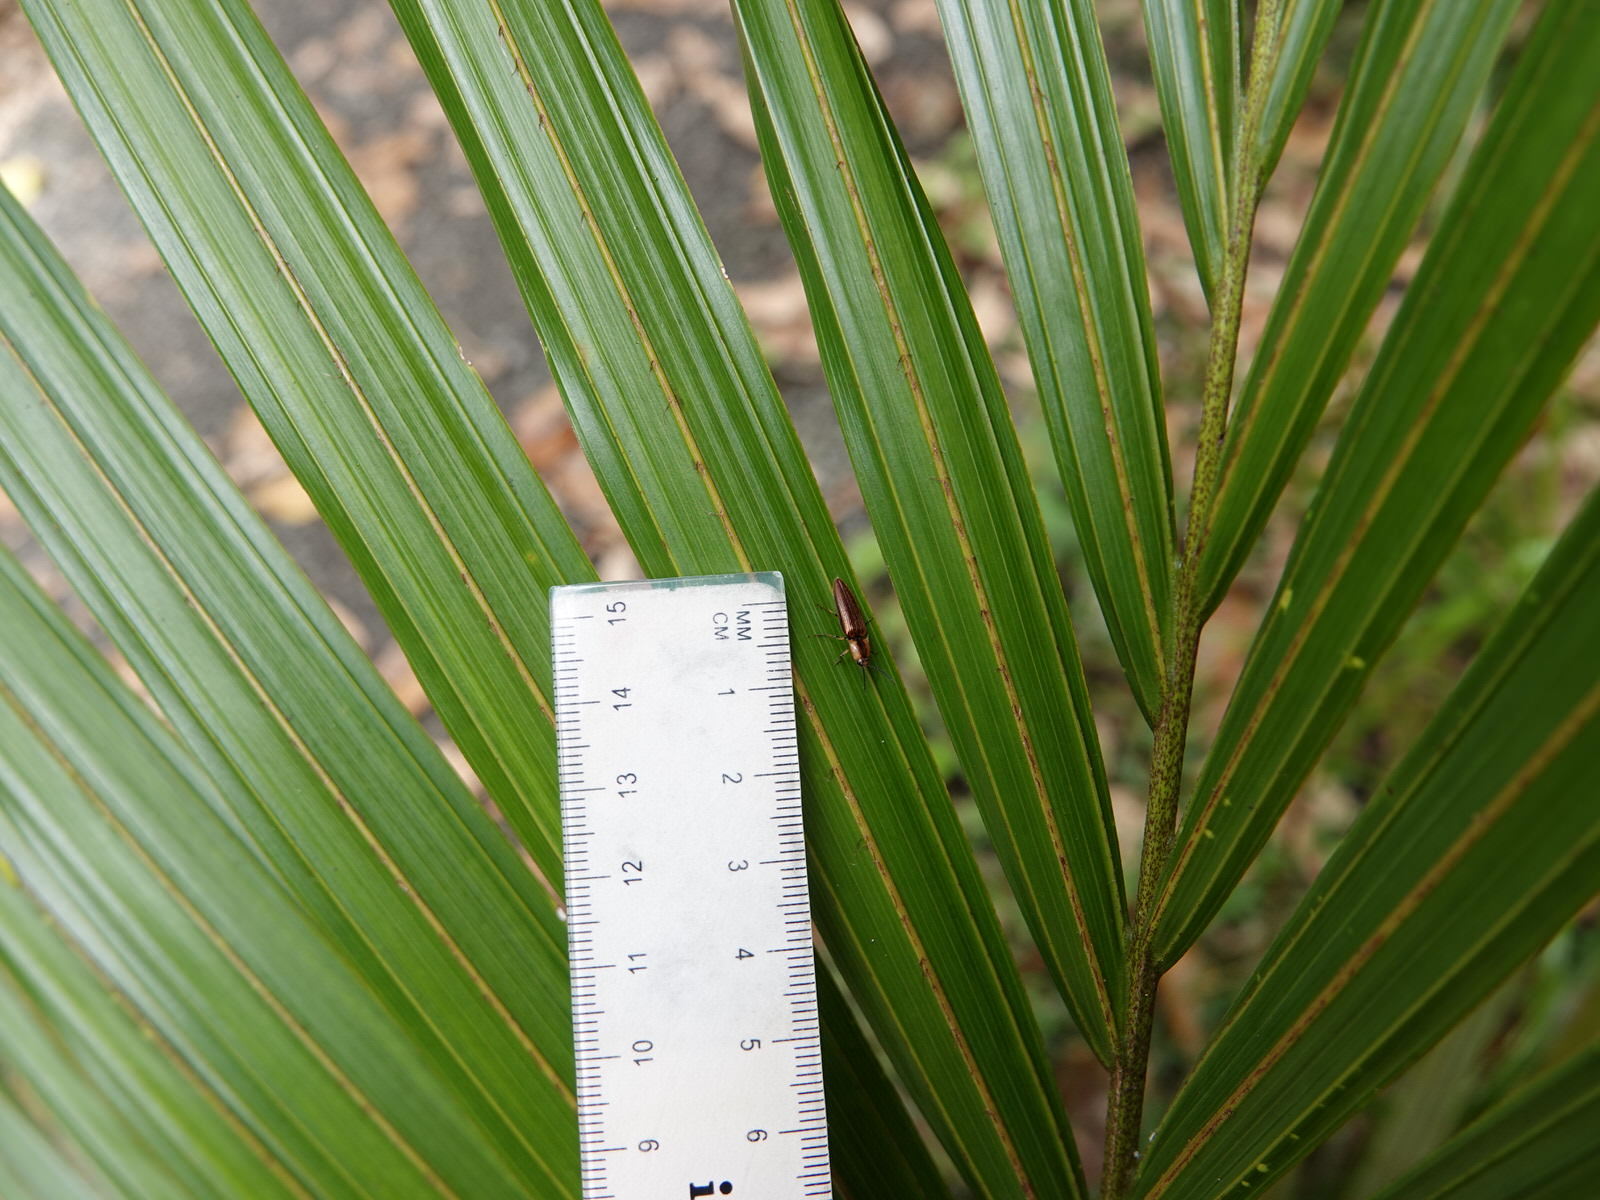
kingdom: Animalia
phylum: Arthropoda
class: Insecta
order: Coleoptera
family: Elateridae
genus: Sphaenelater
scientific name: Sphaenelater
